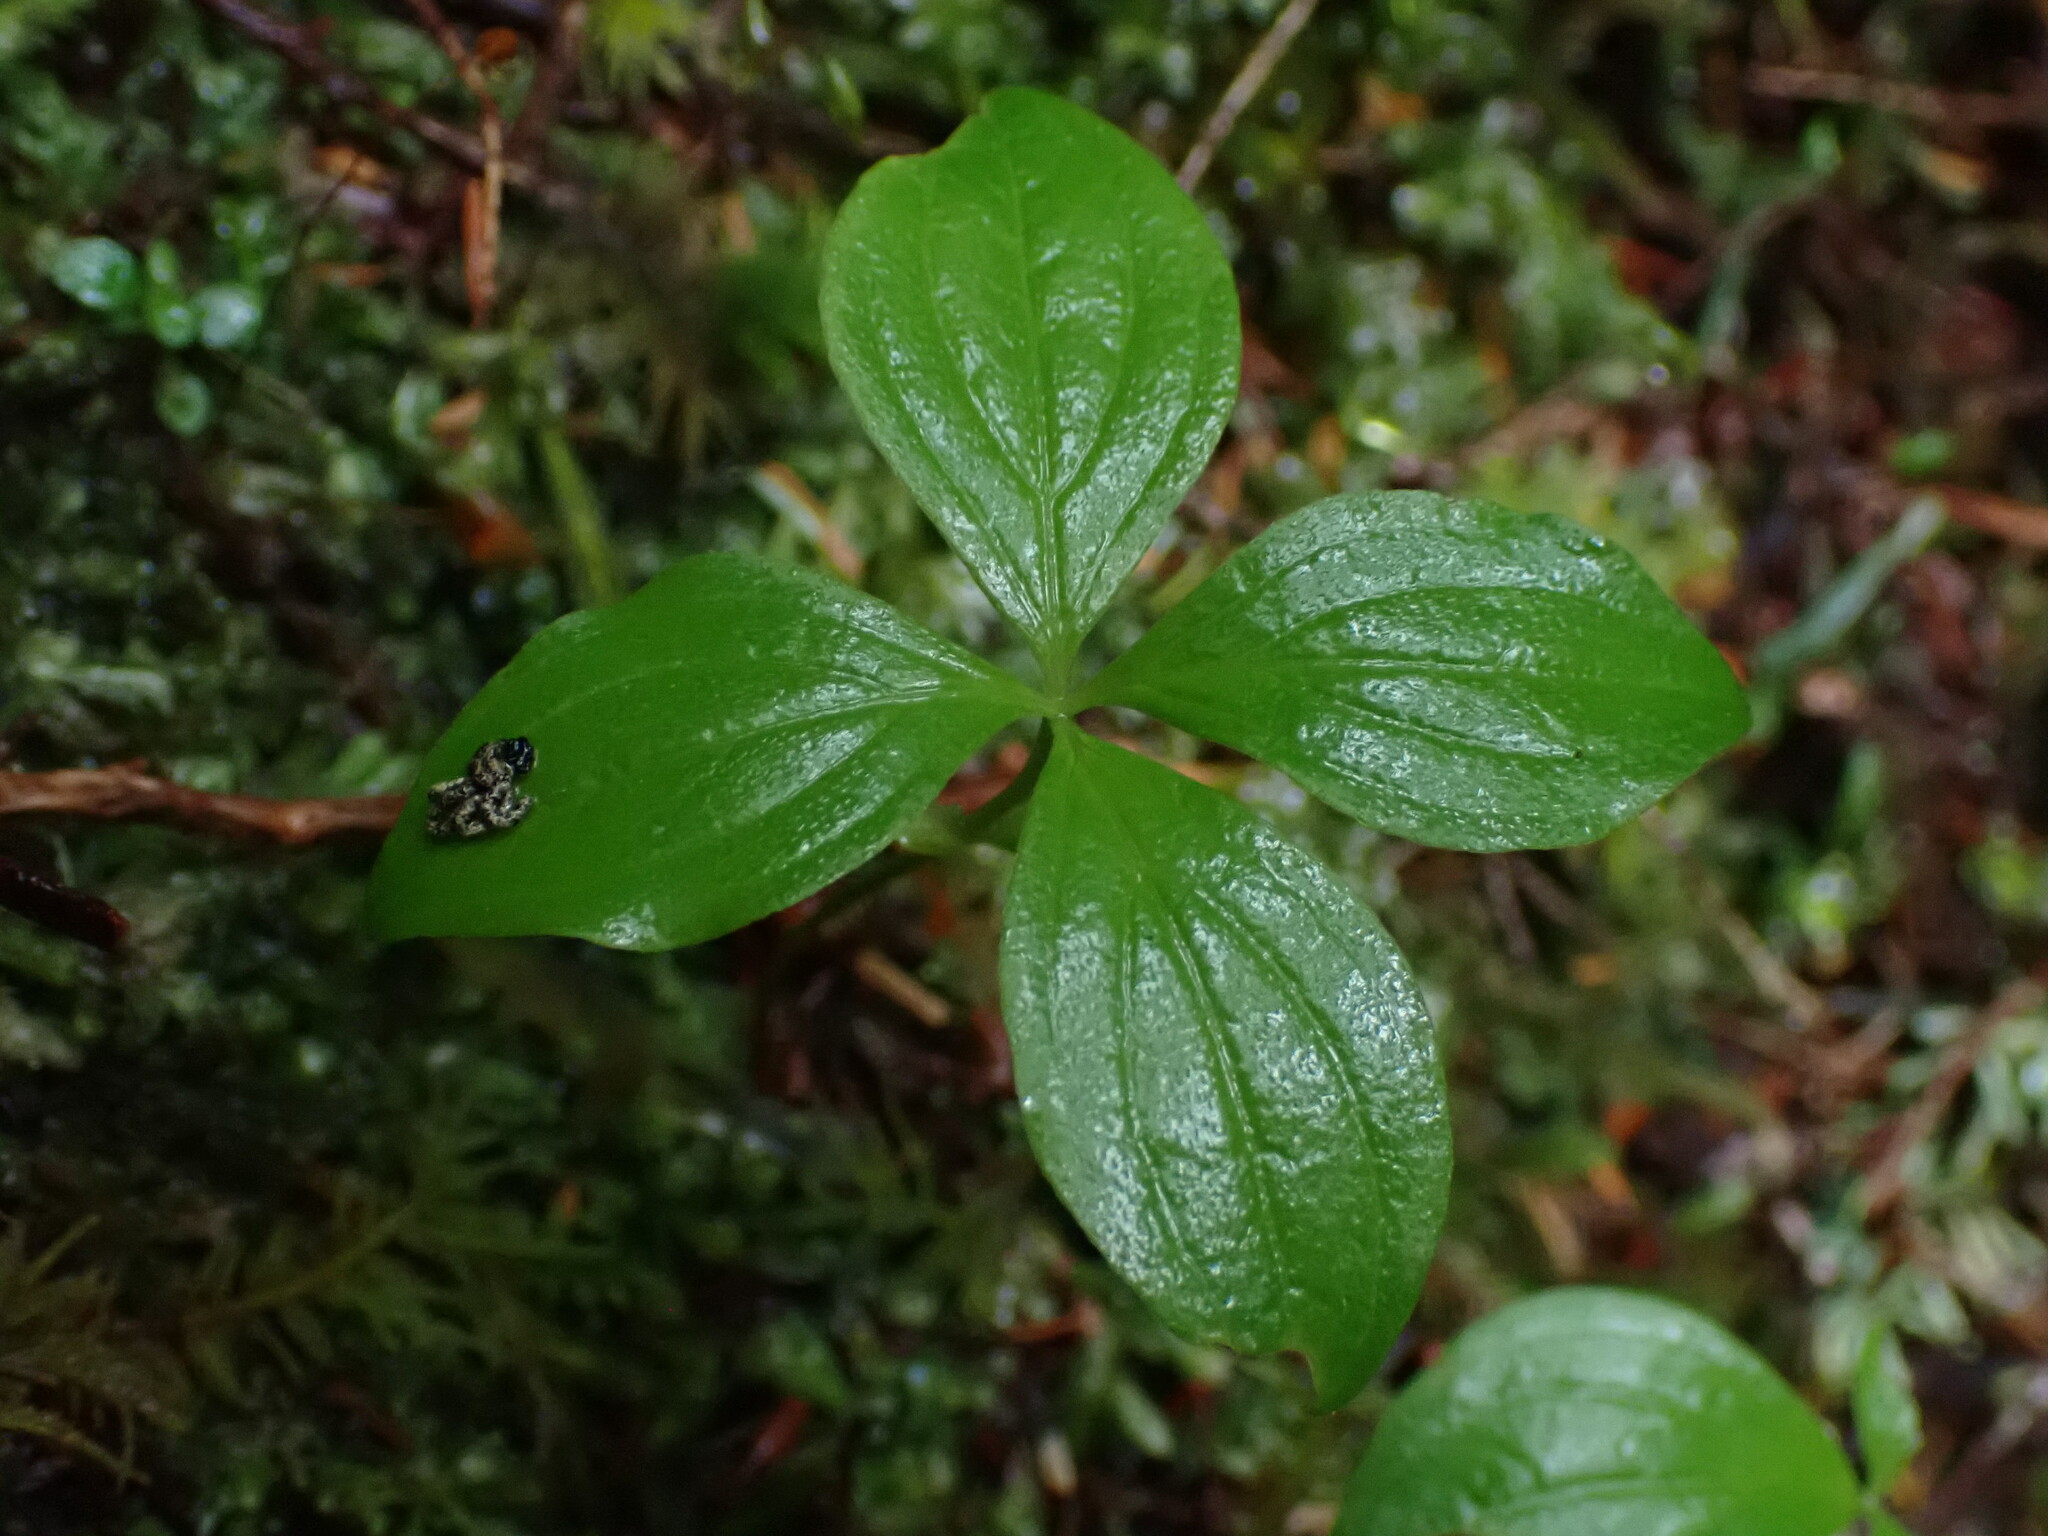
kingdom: Plantae
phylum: Tracheophyta
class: Magnoliopsida
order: Cornales
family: Cornaceae
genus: Cornus
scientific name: Cornus unalaschkensis
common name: Alaska bunchberry
